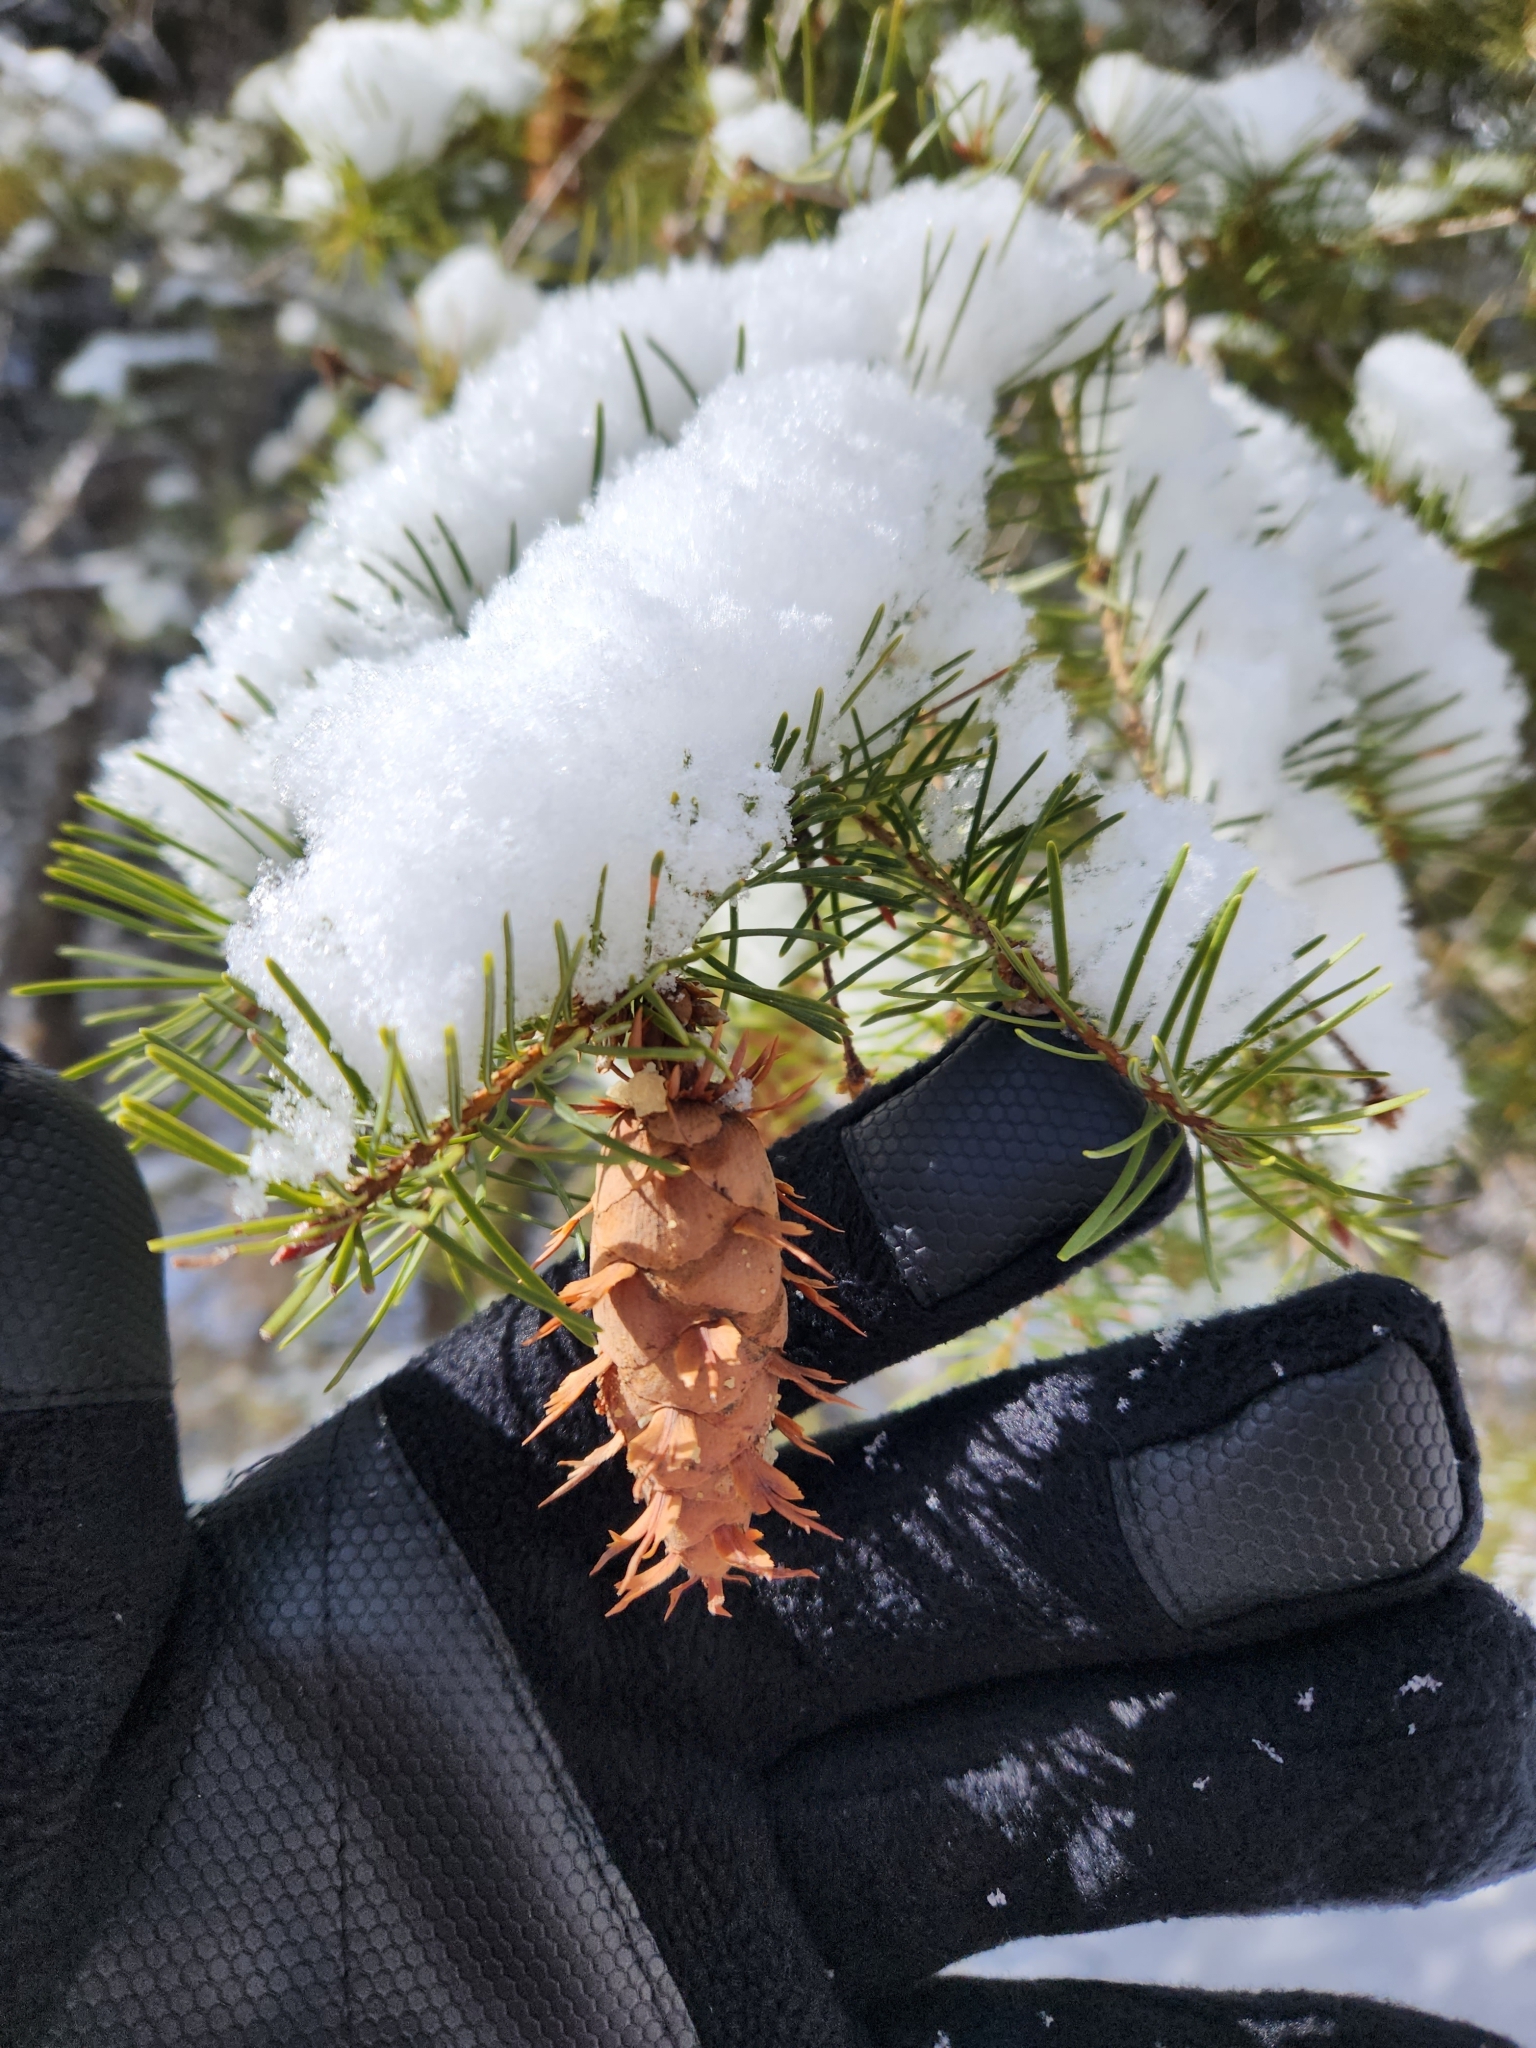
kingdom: Plantae
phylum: Tracheophyta
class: Pinopsida
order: Pinales
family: Pinaceae
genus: Pseudotsuga
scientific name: Pseudotsuga menziesii
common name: Douglas fir
